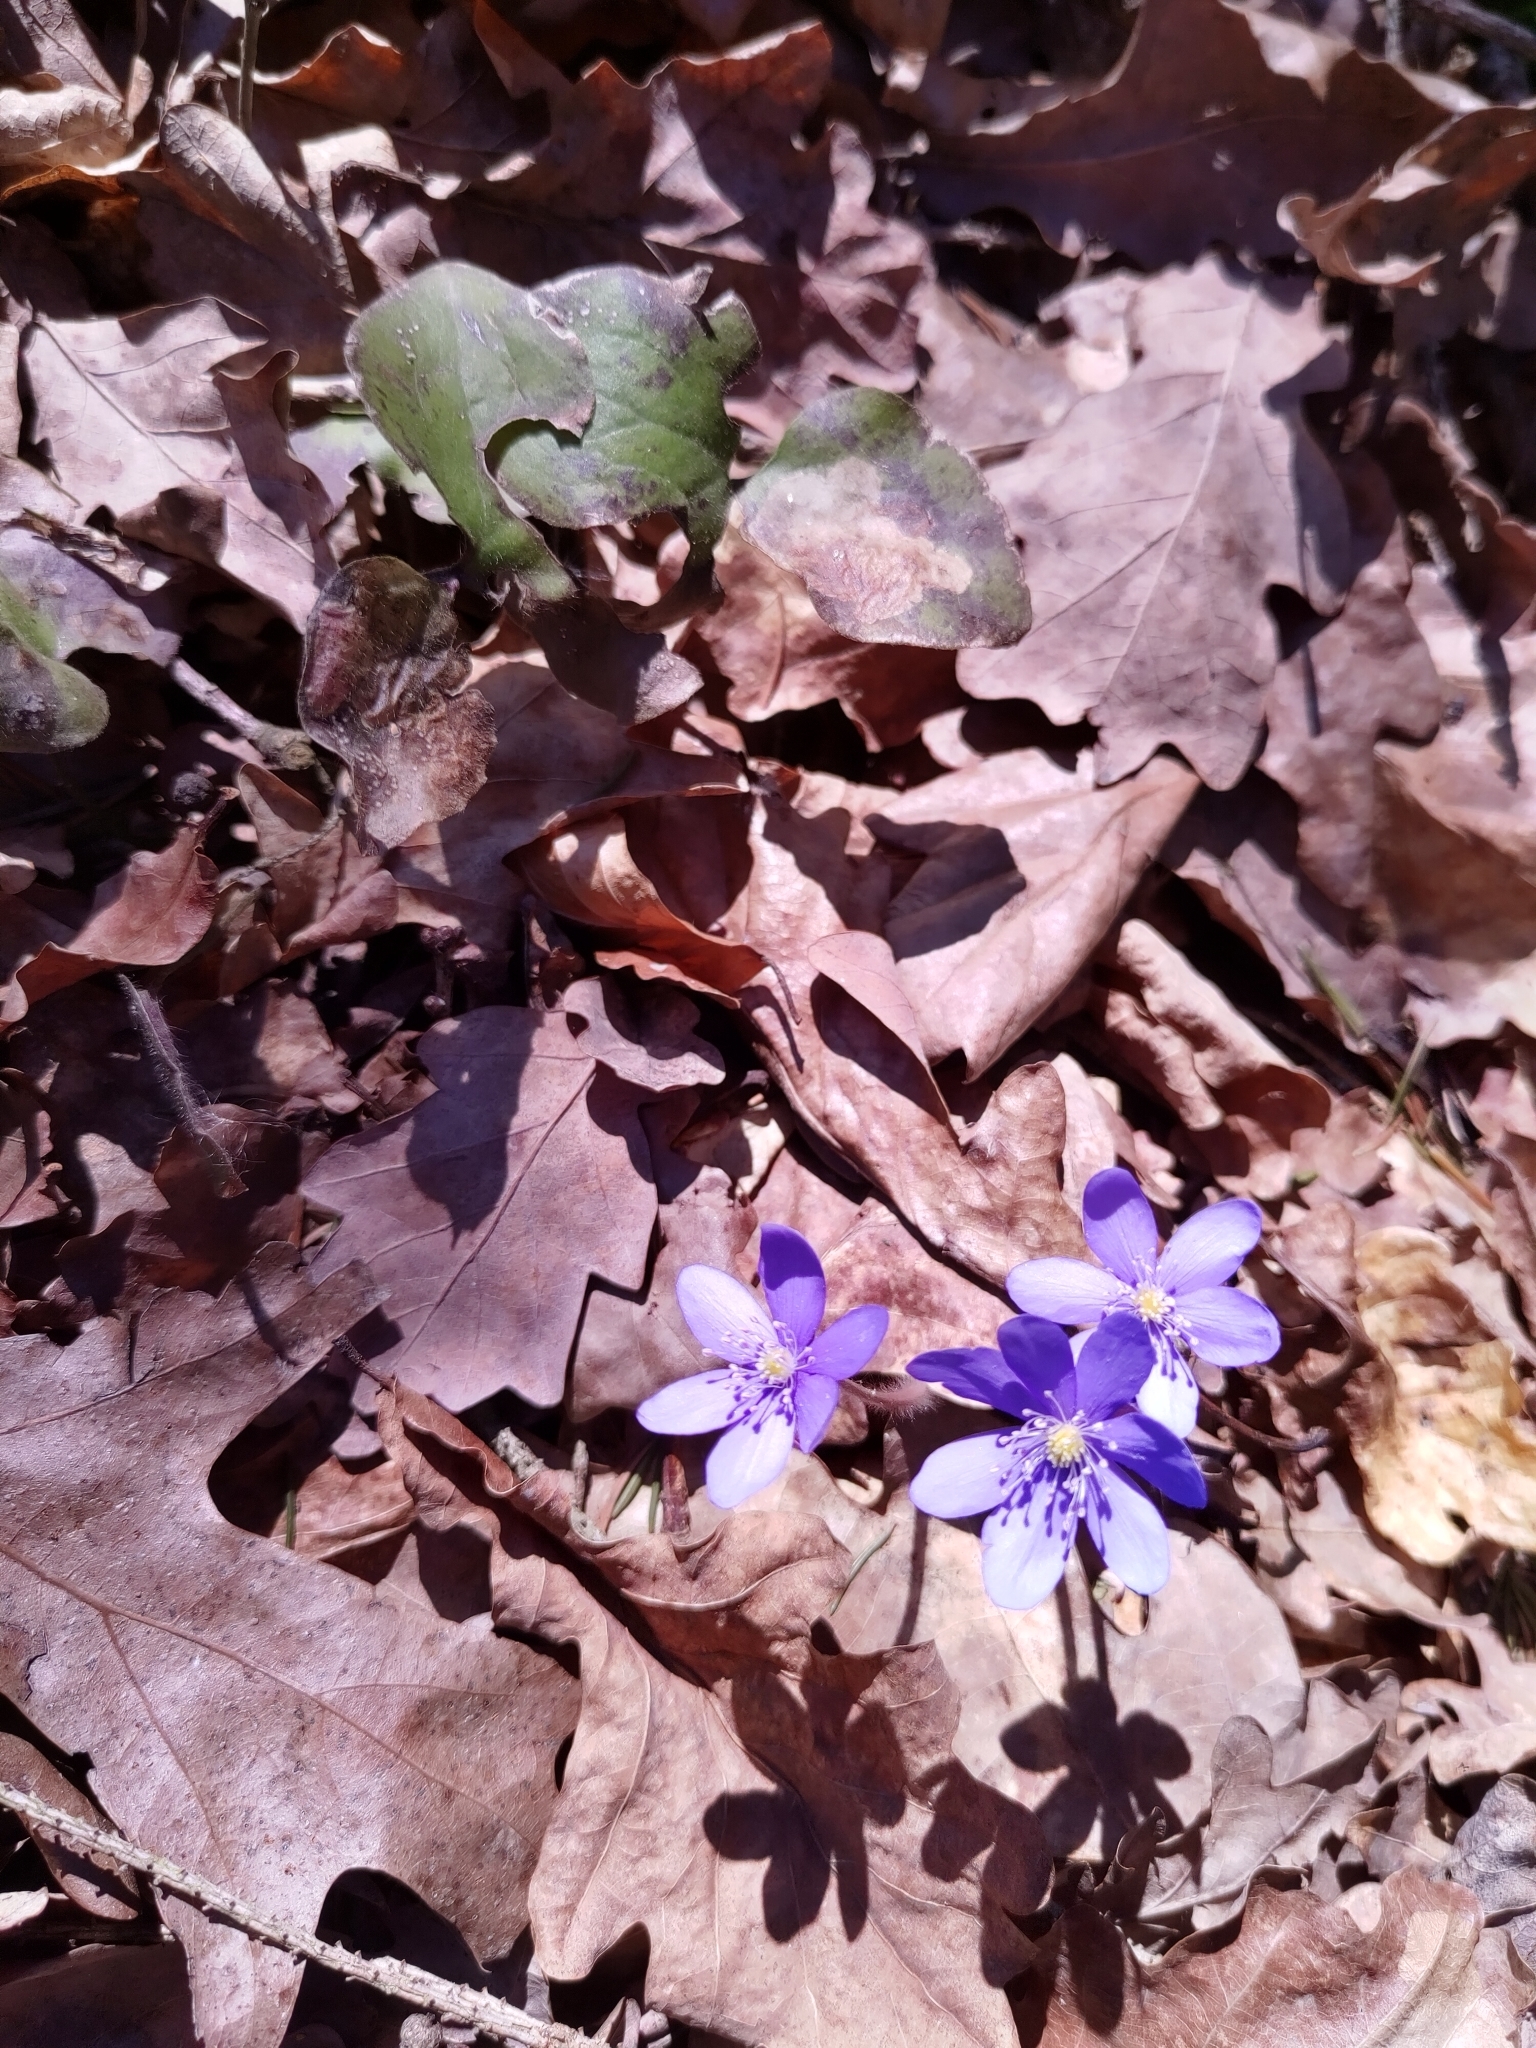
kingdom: Plantae
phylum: Tracheophyta
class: Magnoliopsida
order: Ranunculales
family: Ranunculaceae
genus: Hepatica
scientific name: Hepatica nobilis
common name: Liverleaf
